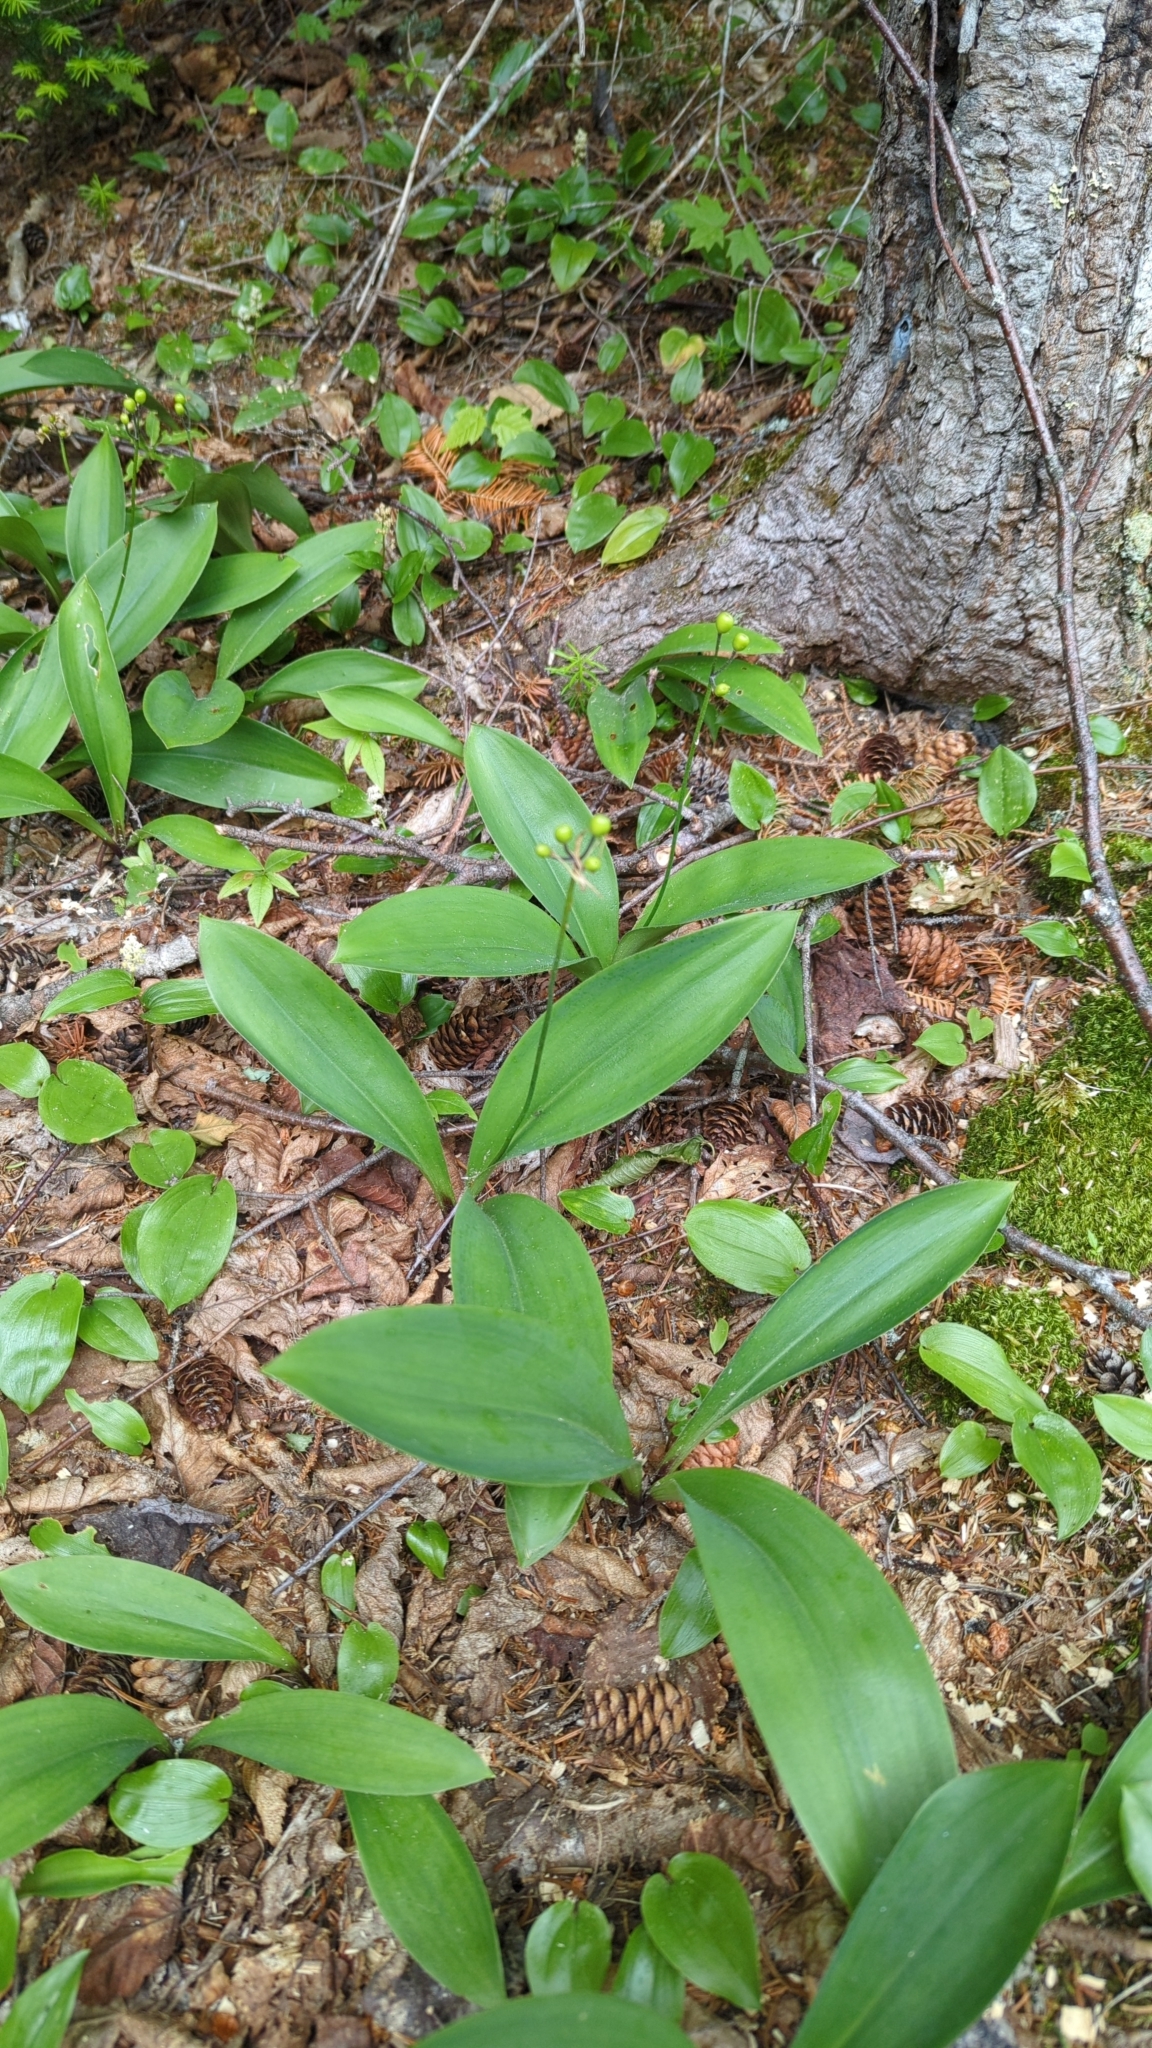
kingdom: Plantae
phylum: Tracheophyta
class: Liliopsida
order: Liliales
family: Liliaceae
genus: Clintonia
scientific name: Clintonia borealis
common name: Yellow clintonia
